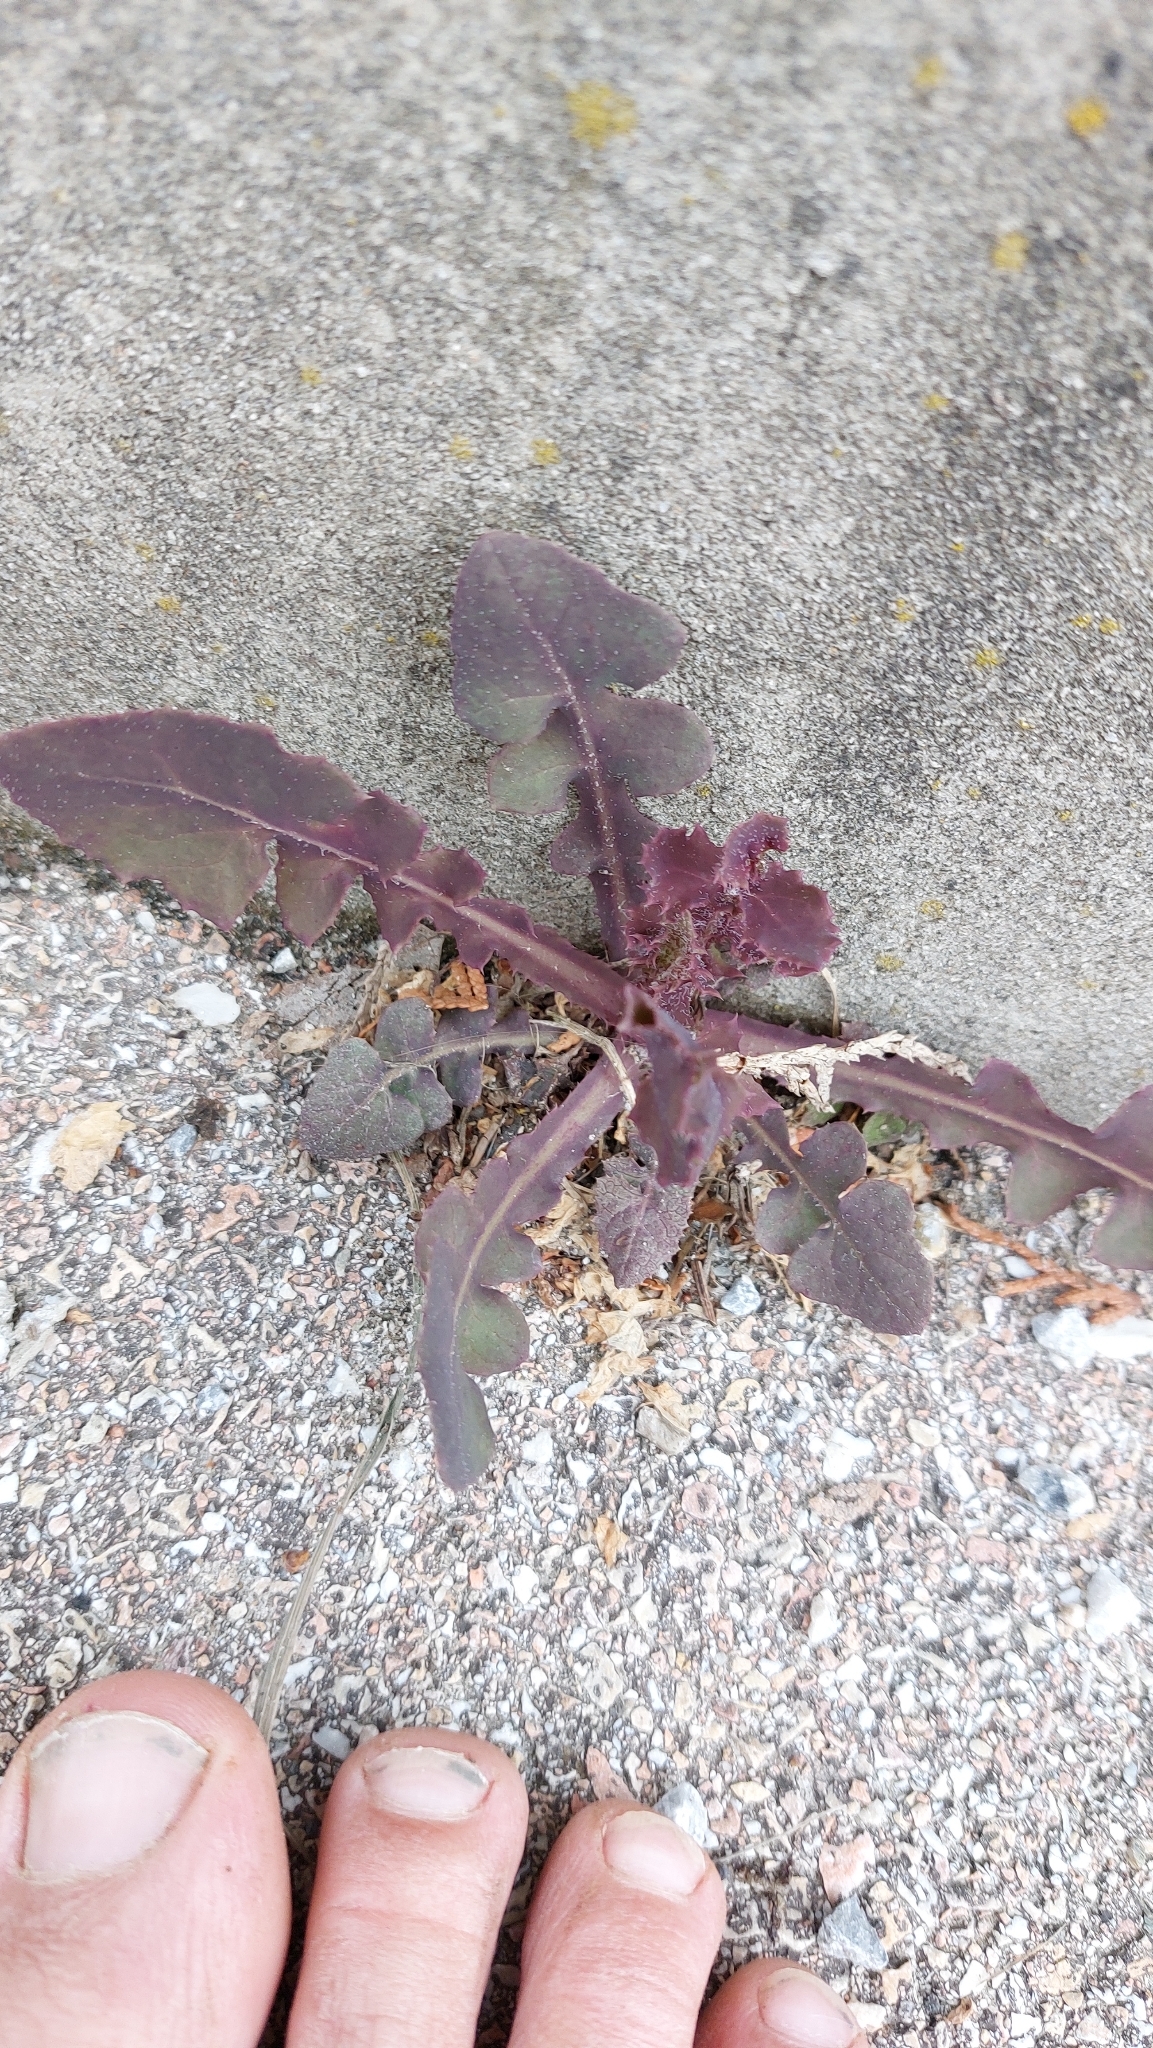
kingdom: Plantae
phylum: Tracheophyta
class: Magnoliopsida
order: Asterales
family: Asteraceae
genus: Sonchus
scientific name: Sonchus oleraceus
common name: Common sowthistle
